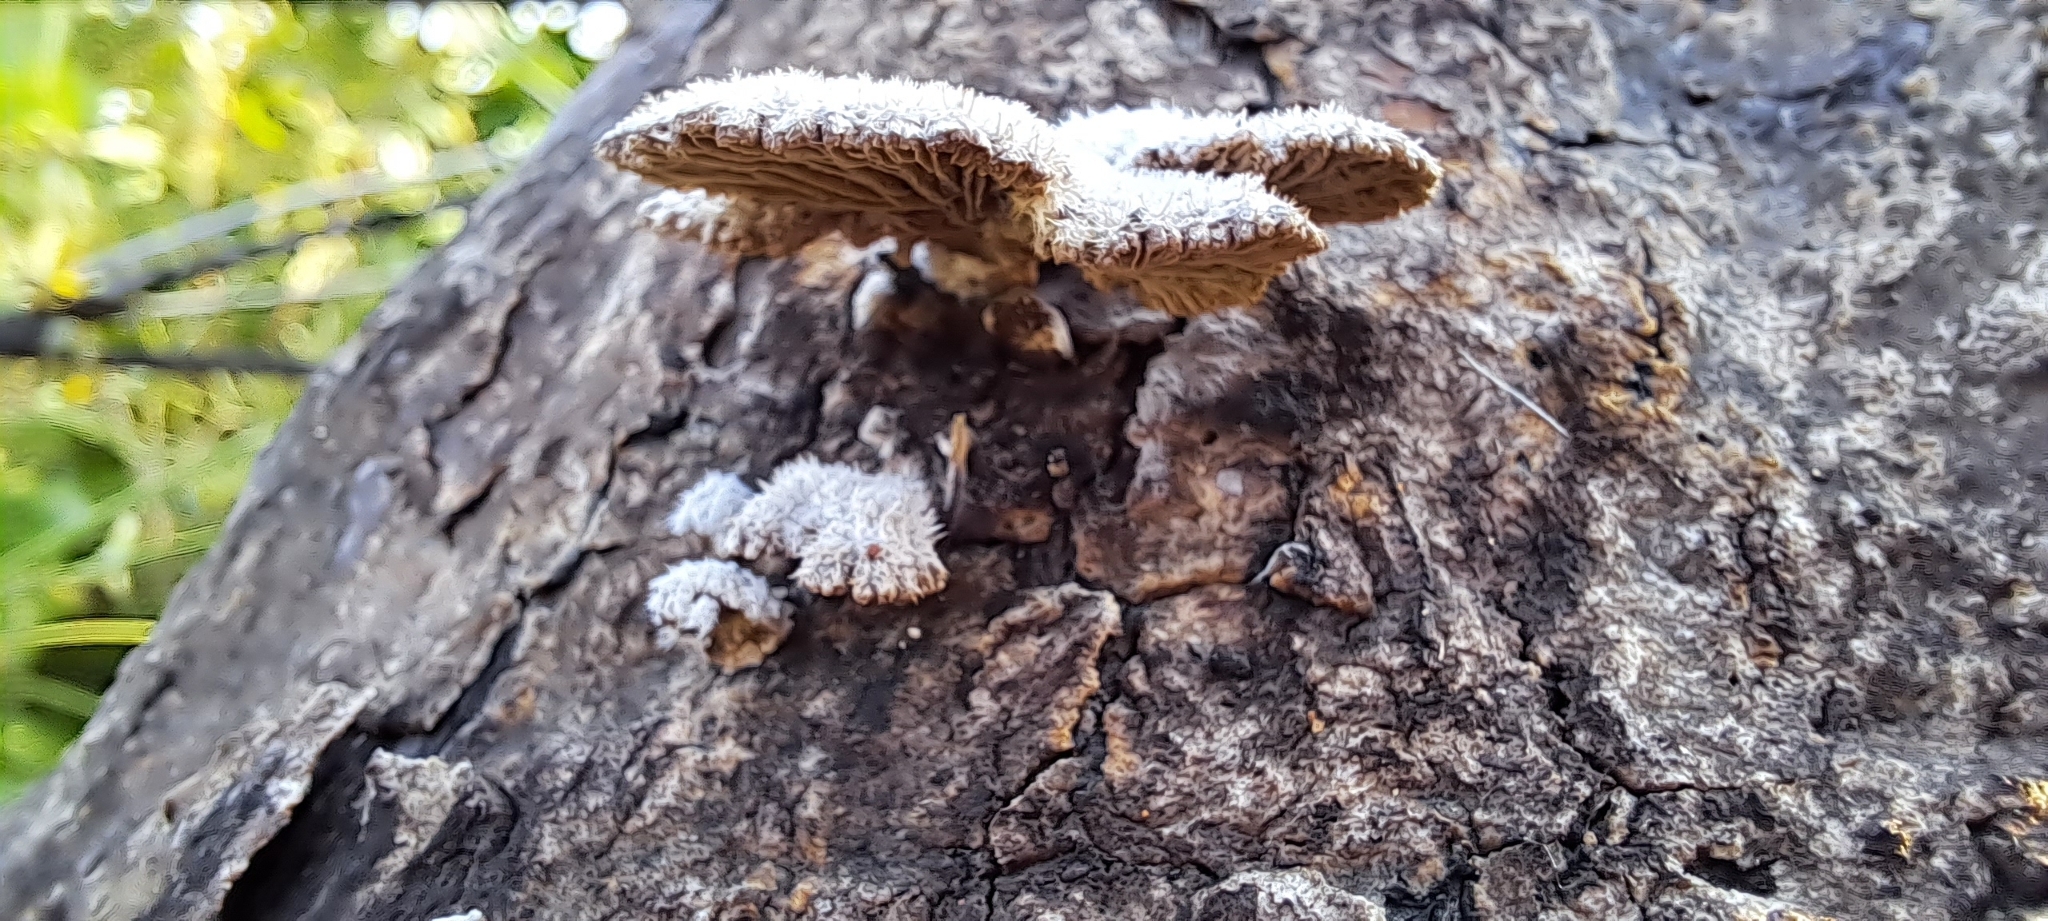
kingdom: Fungi
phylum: Basidiomycota
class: Agaricomycetes
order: Agaricales
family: Schizophyllaceae
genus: Schizophyllum
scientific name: Schizophyllum commune
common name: Common porecrust
